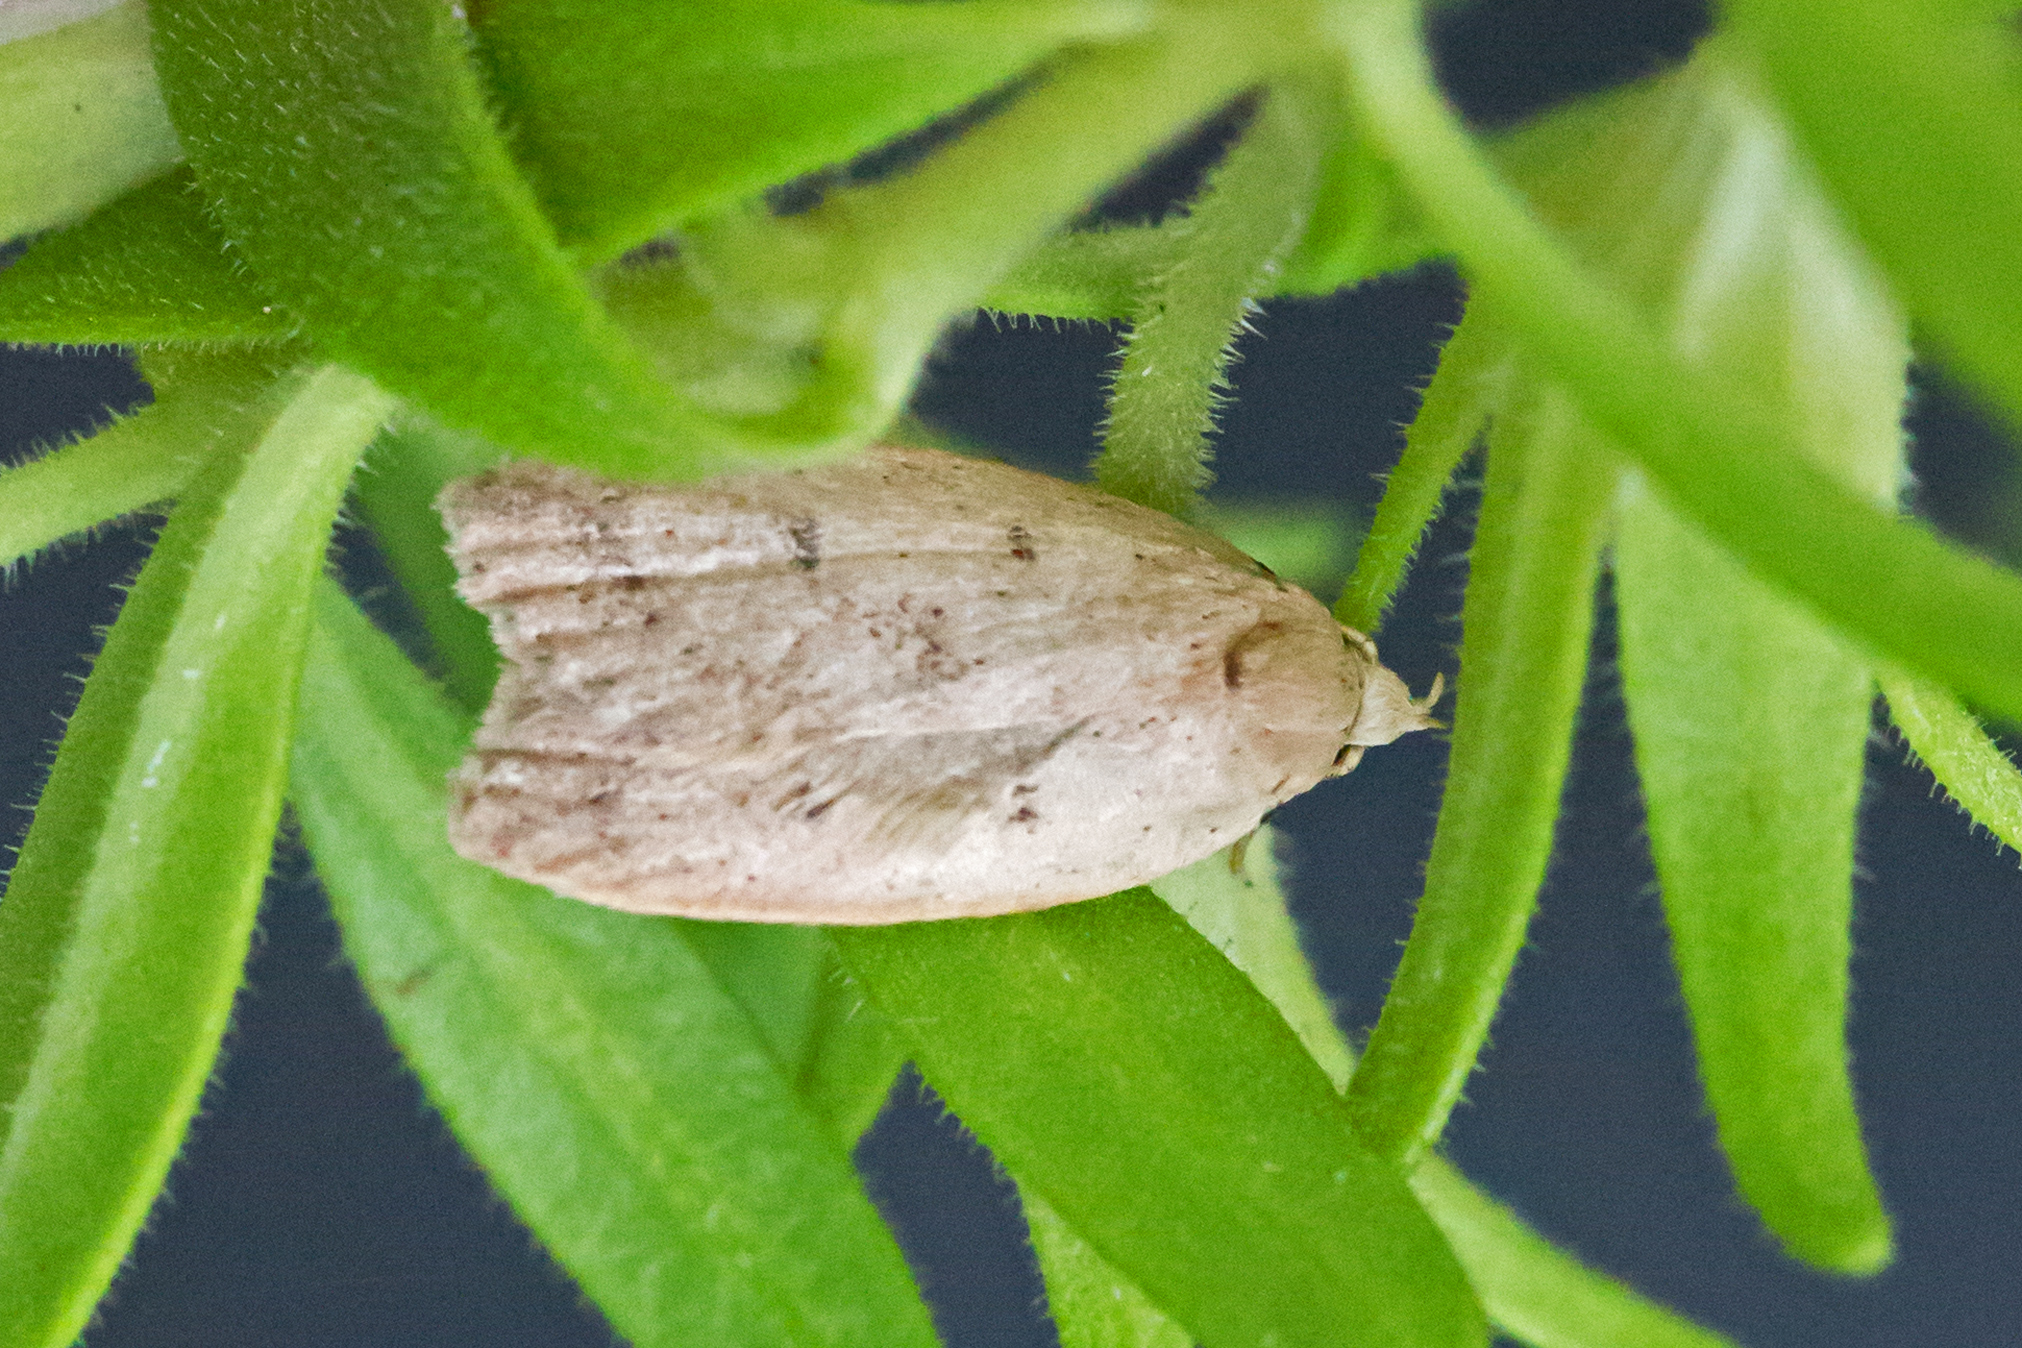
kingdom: Animalia
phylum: Arthropoda
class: Insecta
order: Lepidoptera
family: Peleopodidae
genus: Machimia
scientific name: Machimia tentoriferella
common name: Gold-striped leaftier moth
